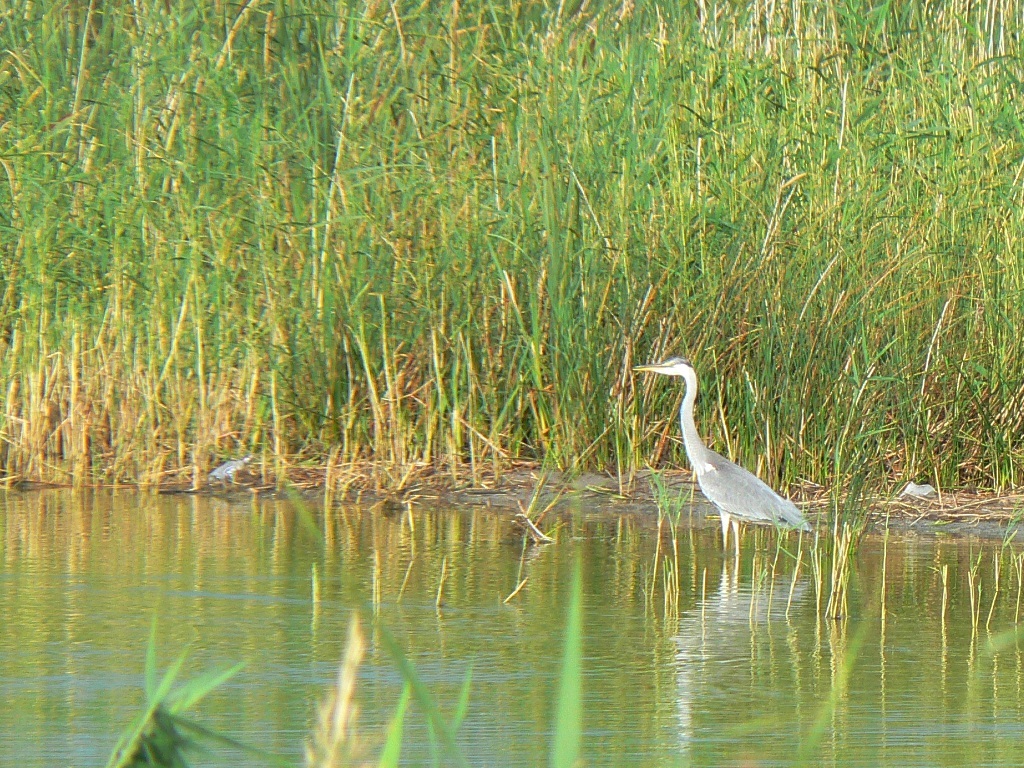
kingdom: Animalia
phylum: Chordata
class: Aves
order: Pelecaniformes
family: Ardeidae
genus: Ardea
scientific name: Ardea cinerea
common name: Grey heron
